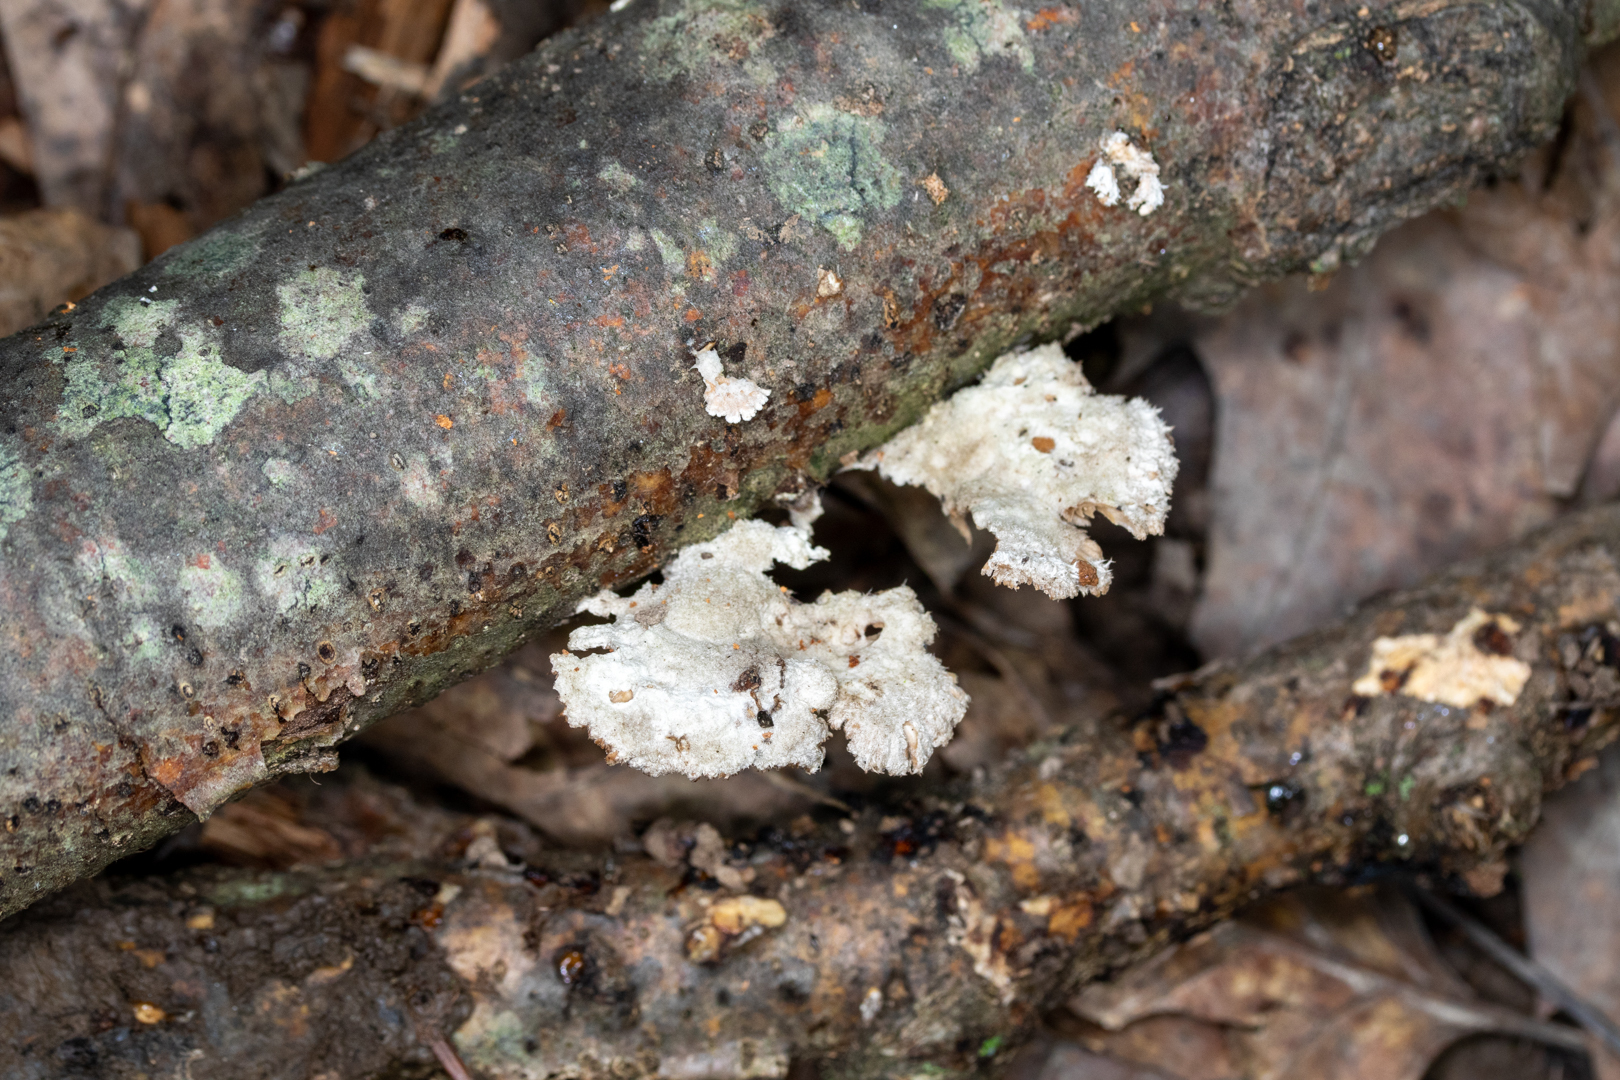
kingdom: Fungi
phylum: Basidiomycota
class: Agaricomycetes
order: Agaricales
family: Schizophyllaceae
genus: Schizophyllum
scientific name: Schizophyllum commune
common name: Common porecrust
